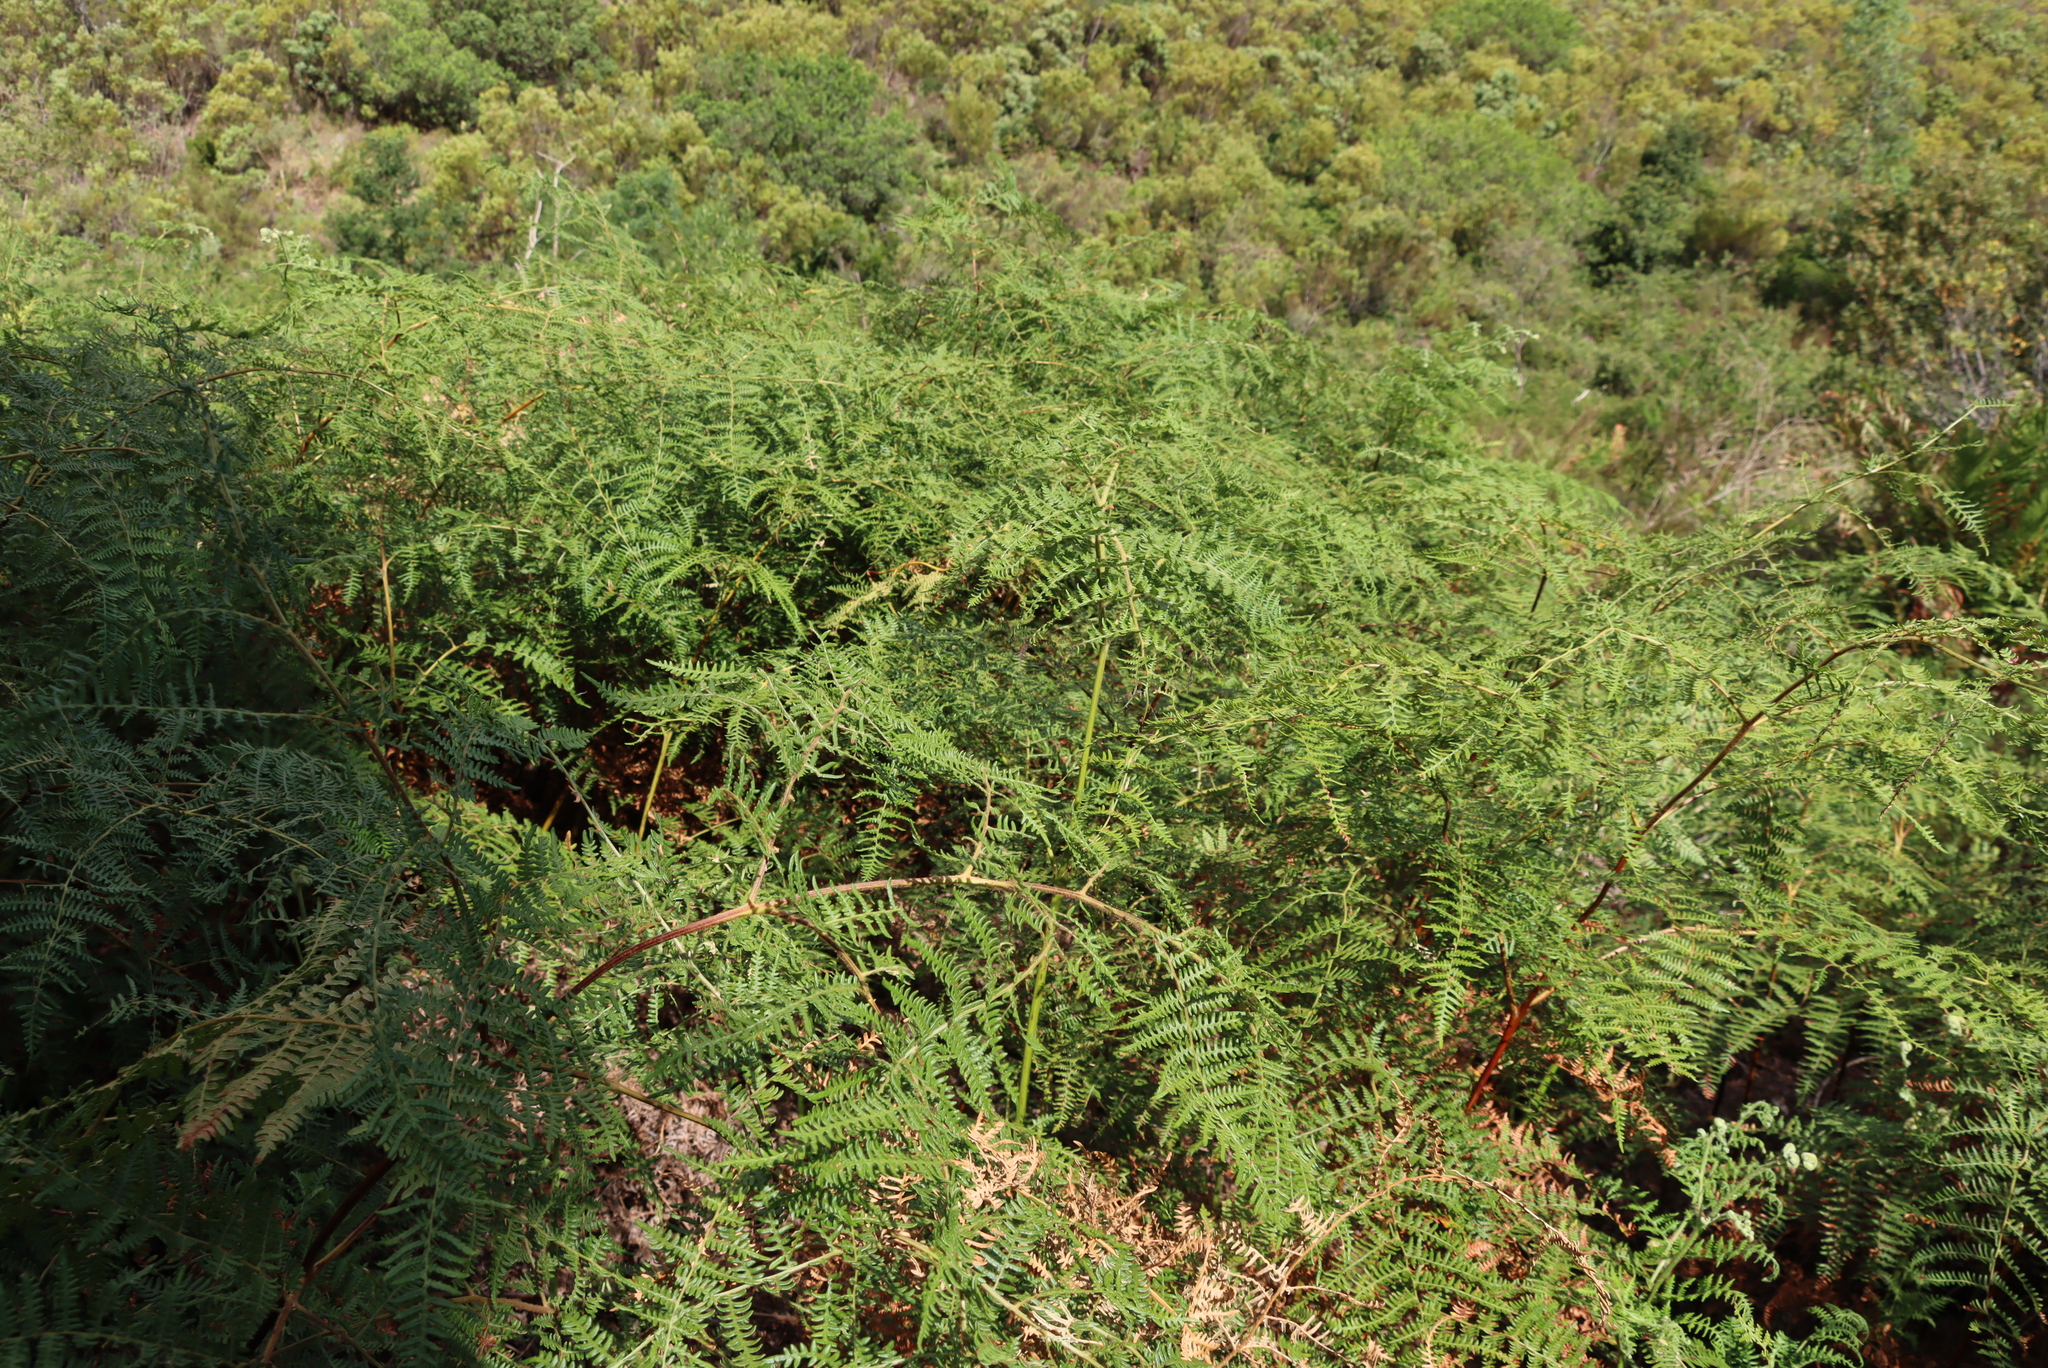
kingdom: Plantae
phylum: Tracheophyta
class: Polypodiopsida
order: Polypodiales
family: Dennstaedtiaceae
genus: Pteridium
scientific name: Pteridium aquilinum
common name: Bracken
